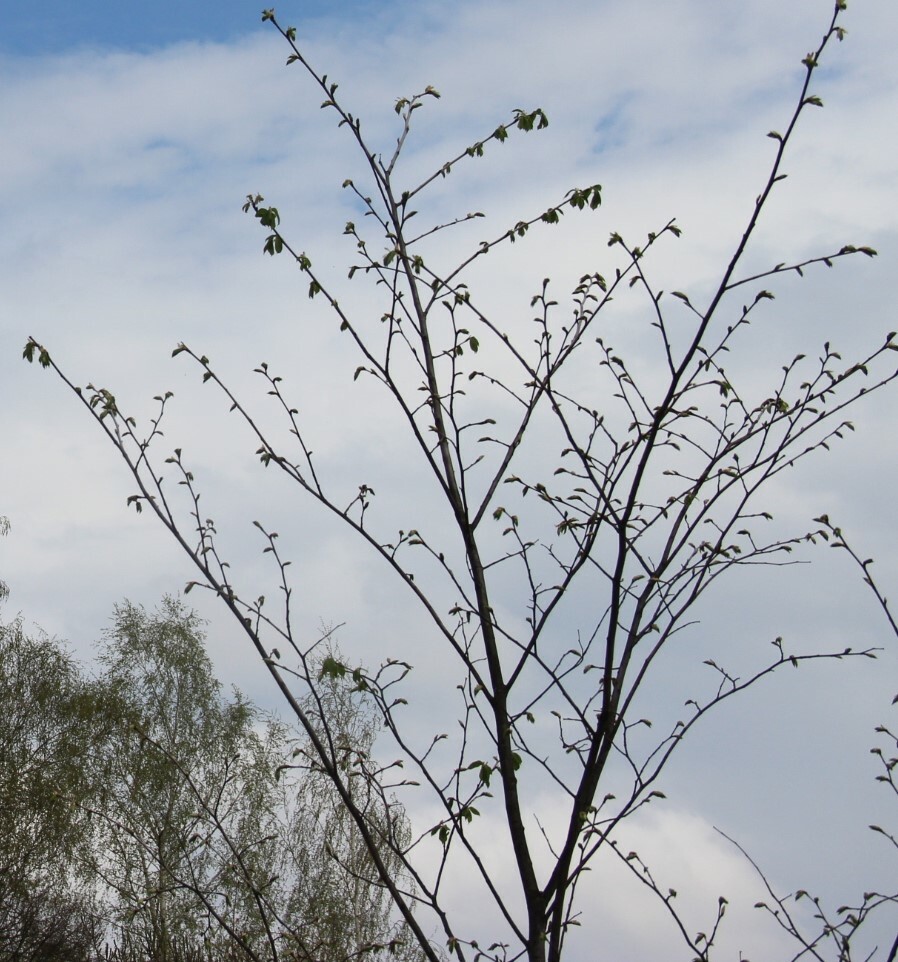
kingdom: Plantae
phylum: Tracheophyta
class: Magnoliopsida
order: Fagales
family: Betulaceae
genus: Corylus
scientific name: Corylus avellana
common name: European hazel
